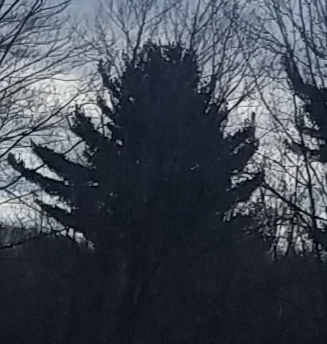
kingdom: Plantae
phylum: Tracheophyta
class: Pinopsida
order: Pinales
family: Pinaceae
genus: Pinus
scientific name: Pinus strobus
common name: Weymouth pine
